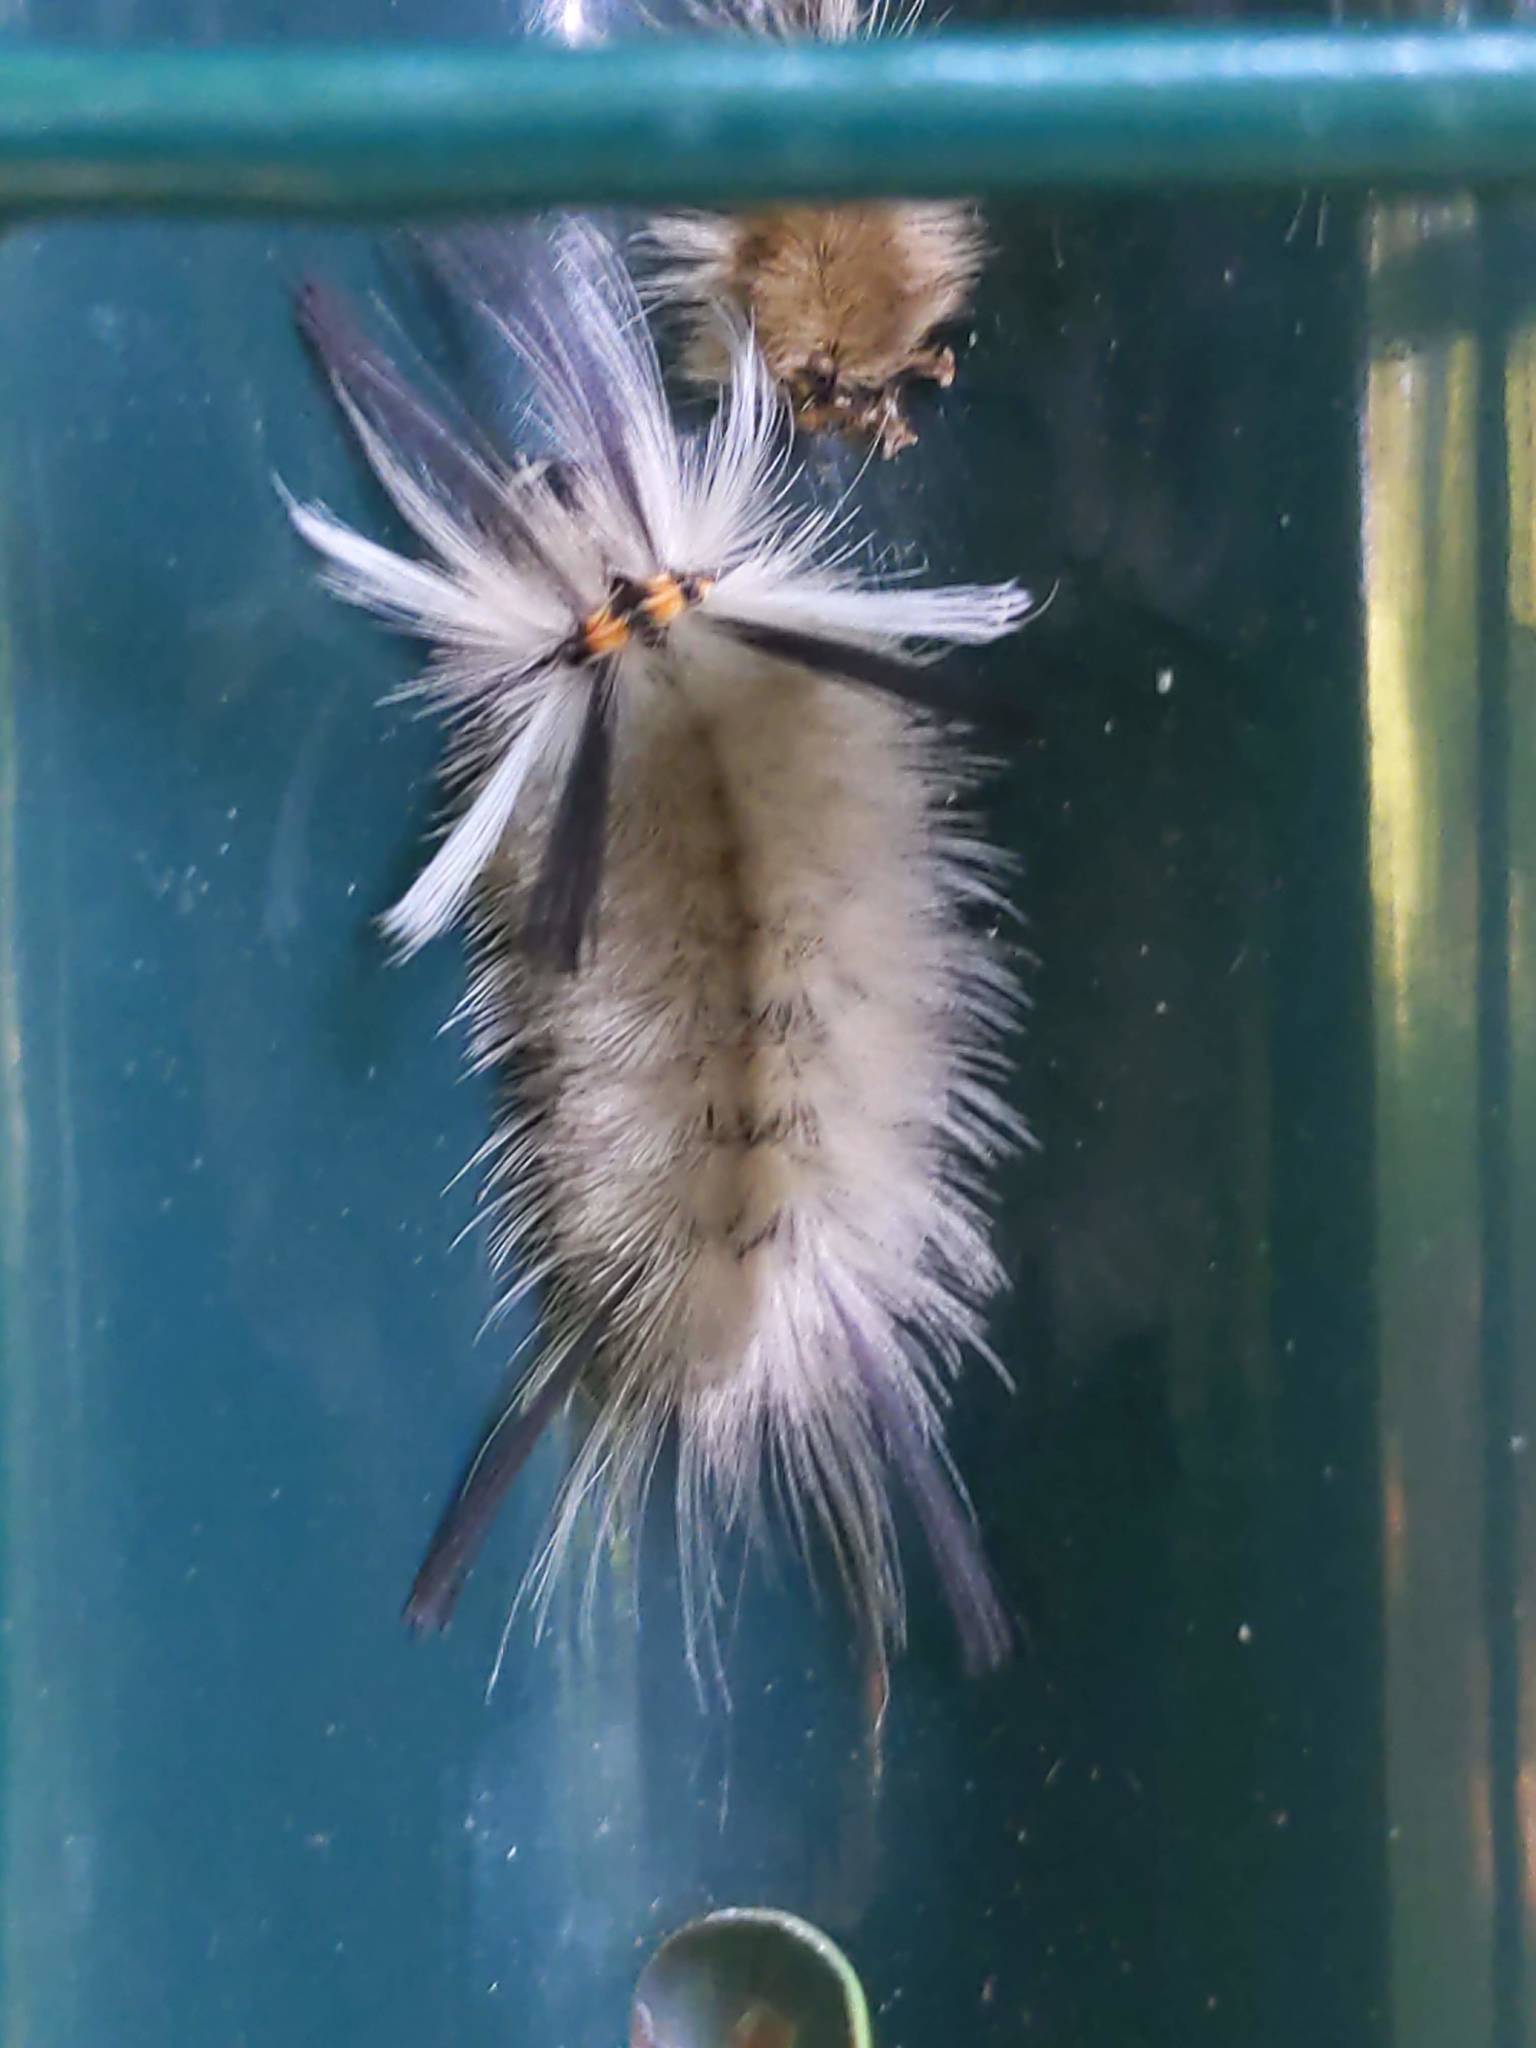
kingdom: Animalia
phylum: Arthropoda
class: Insecta
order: Lepidoptera
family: Erebidae
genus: Halysidota
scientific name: Halysidota tessellaris
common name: Banded tussock moth
